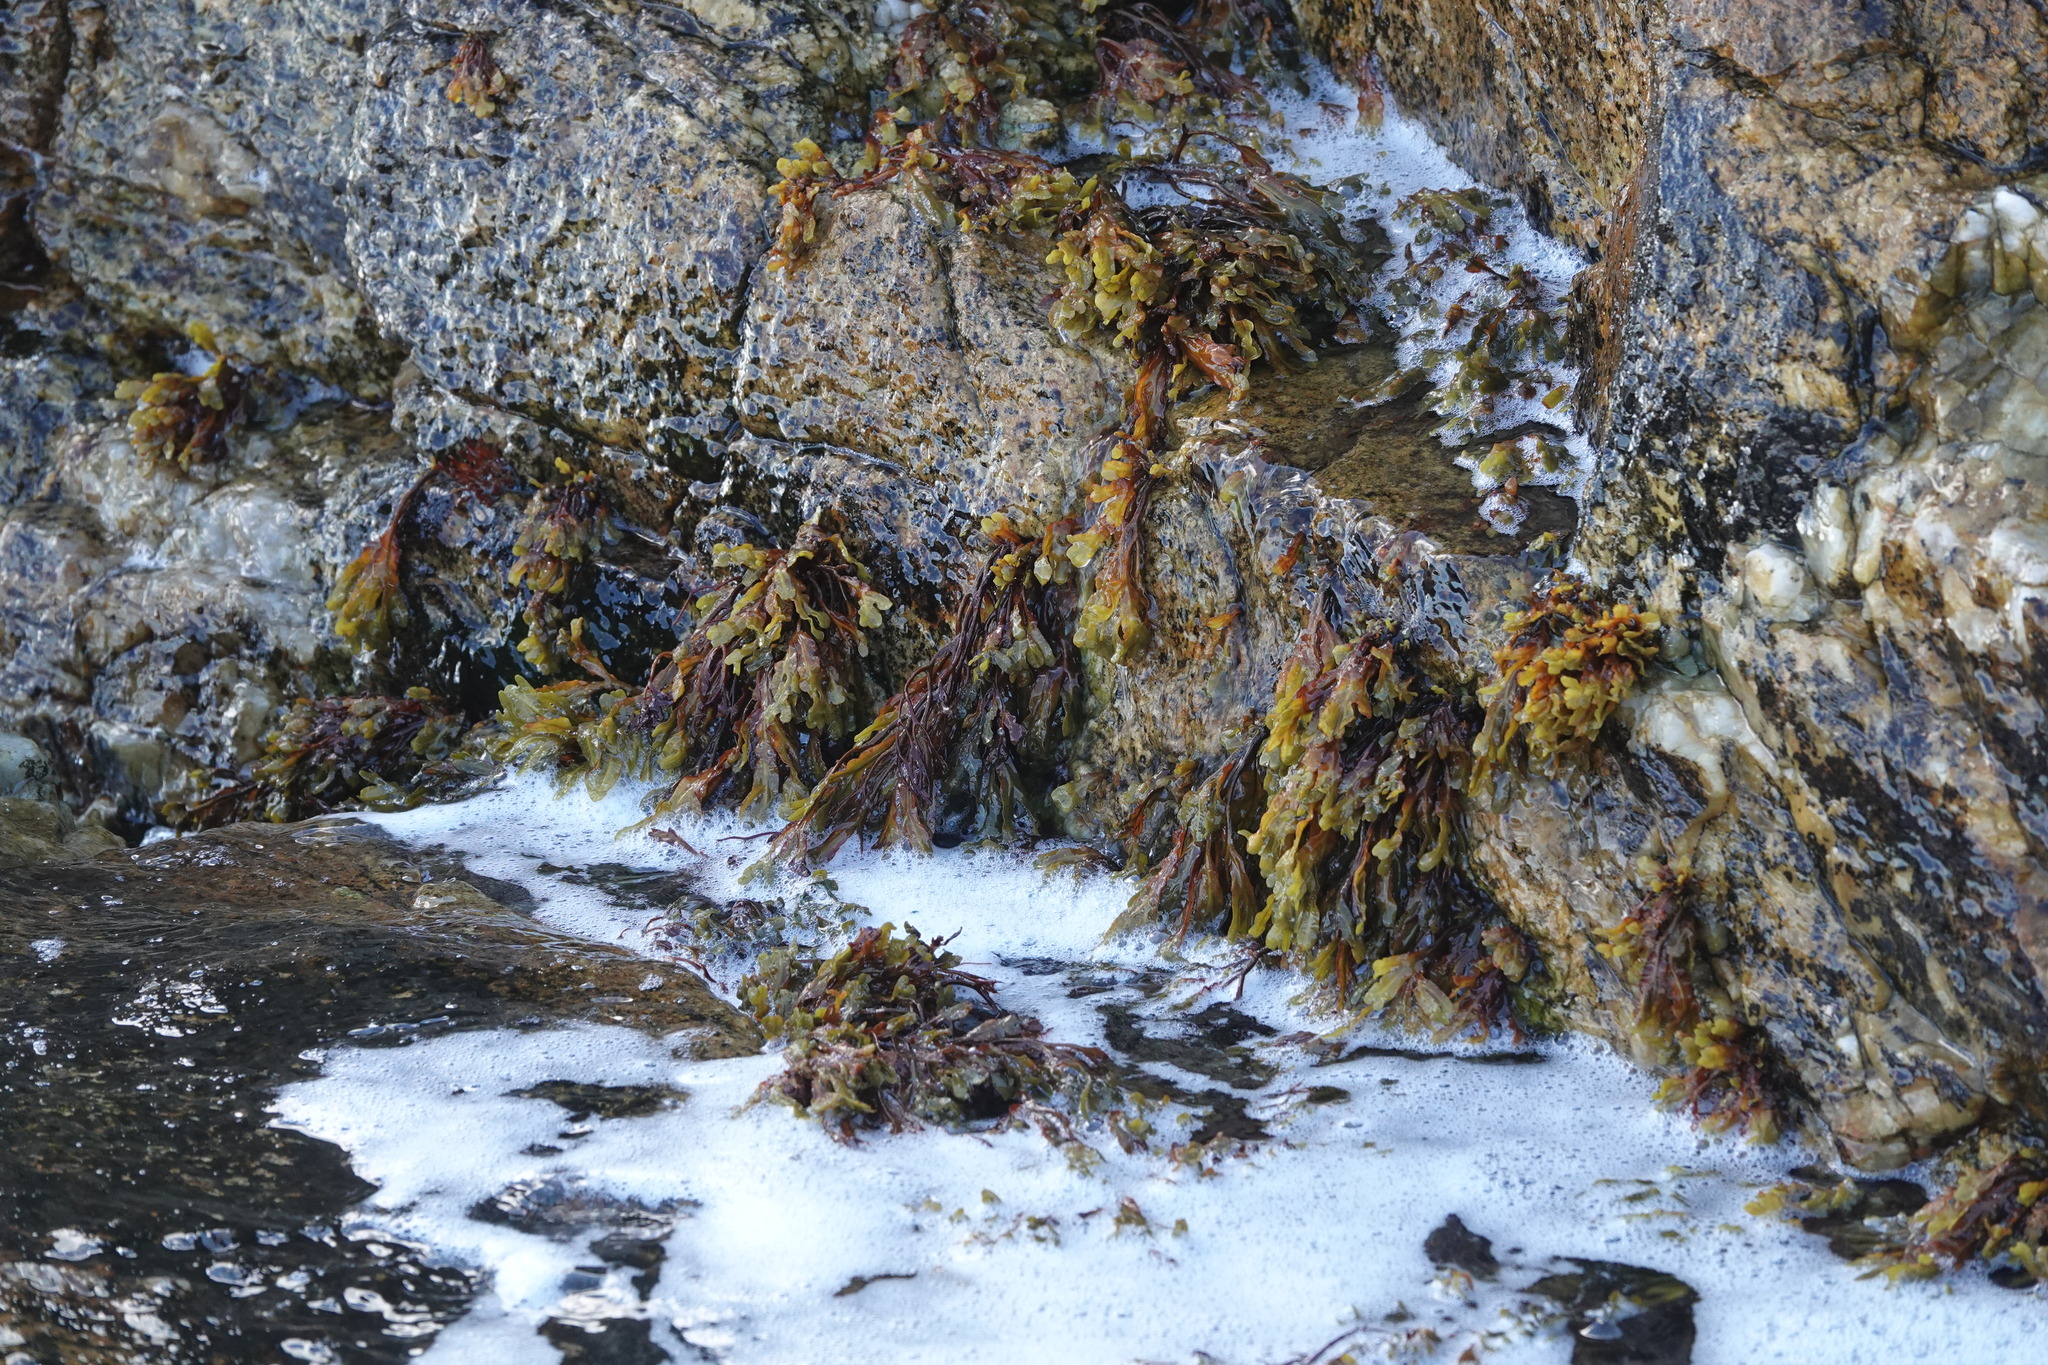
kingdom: Chromista
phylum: Ochrophyta
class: Phaeophyceae
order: Fucales
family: Fucaceae
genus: Fucus
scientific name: Fucus spiralis
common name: Spiral wrack
